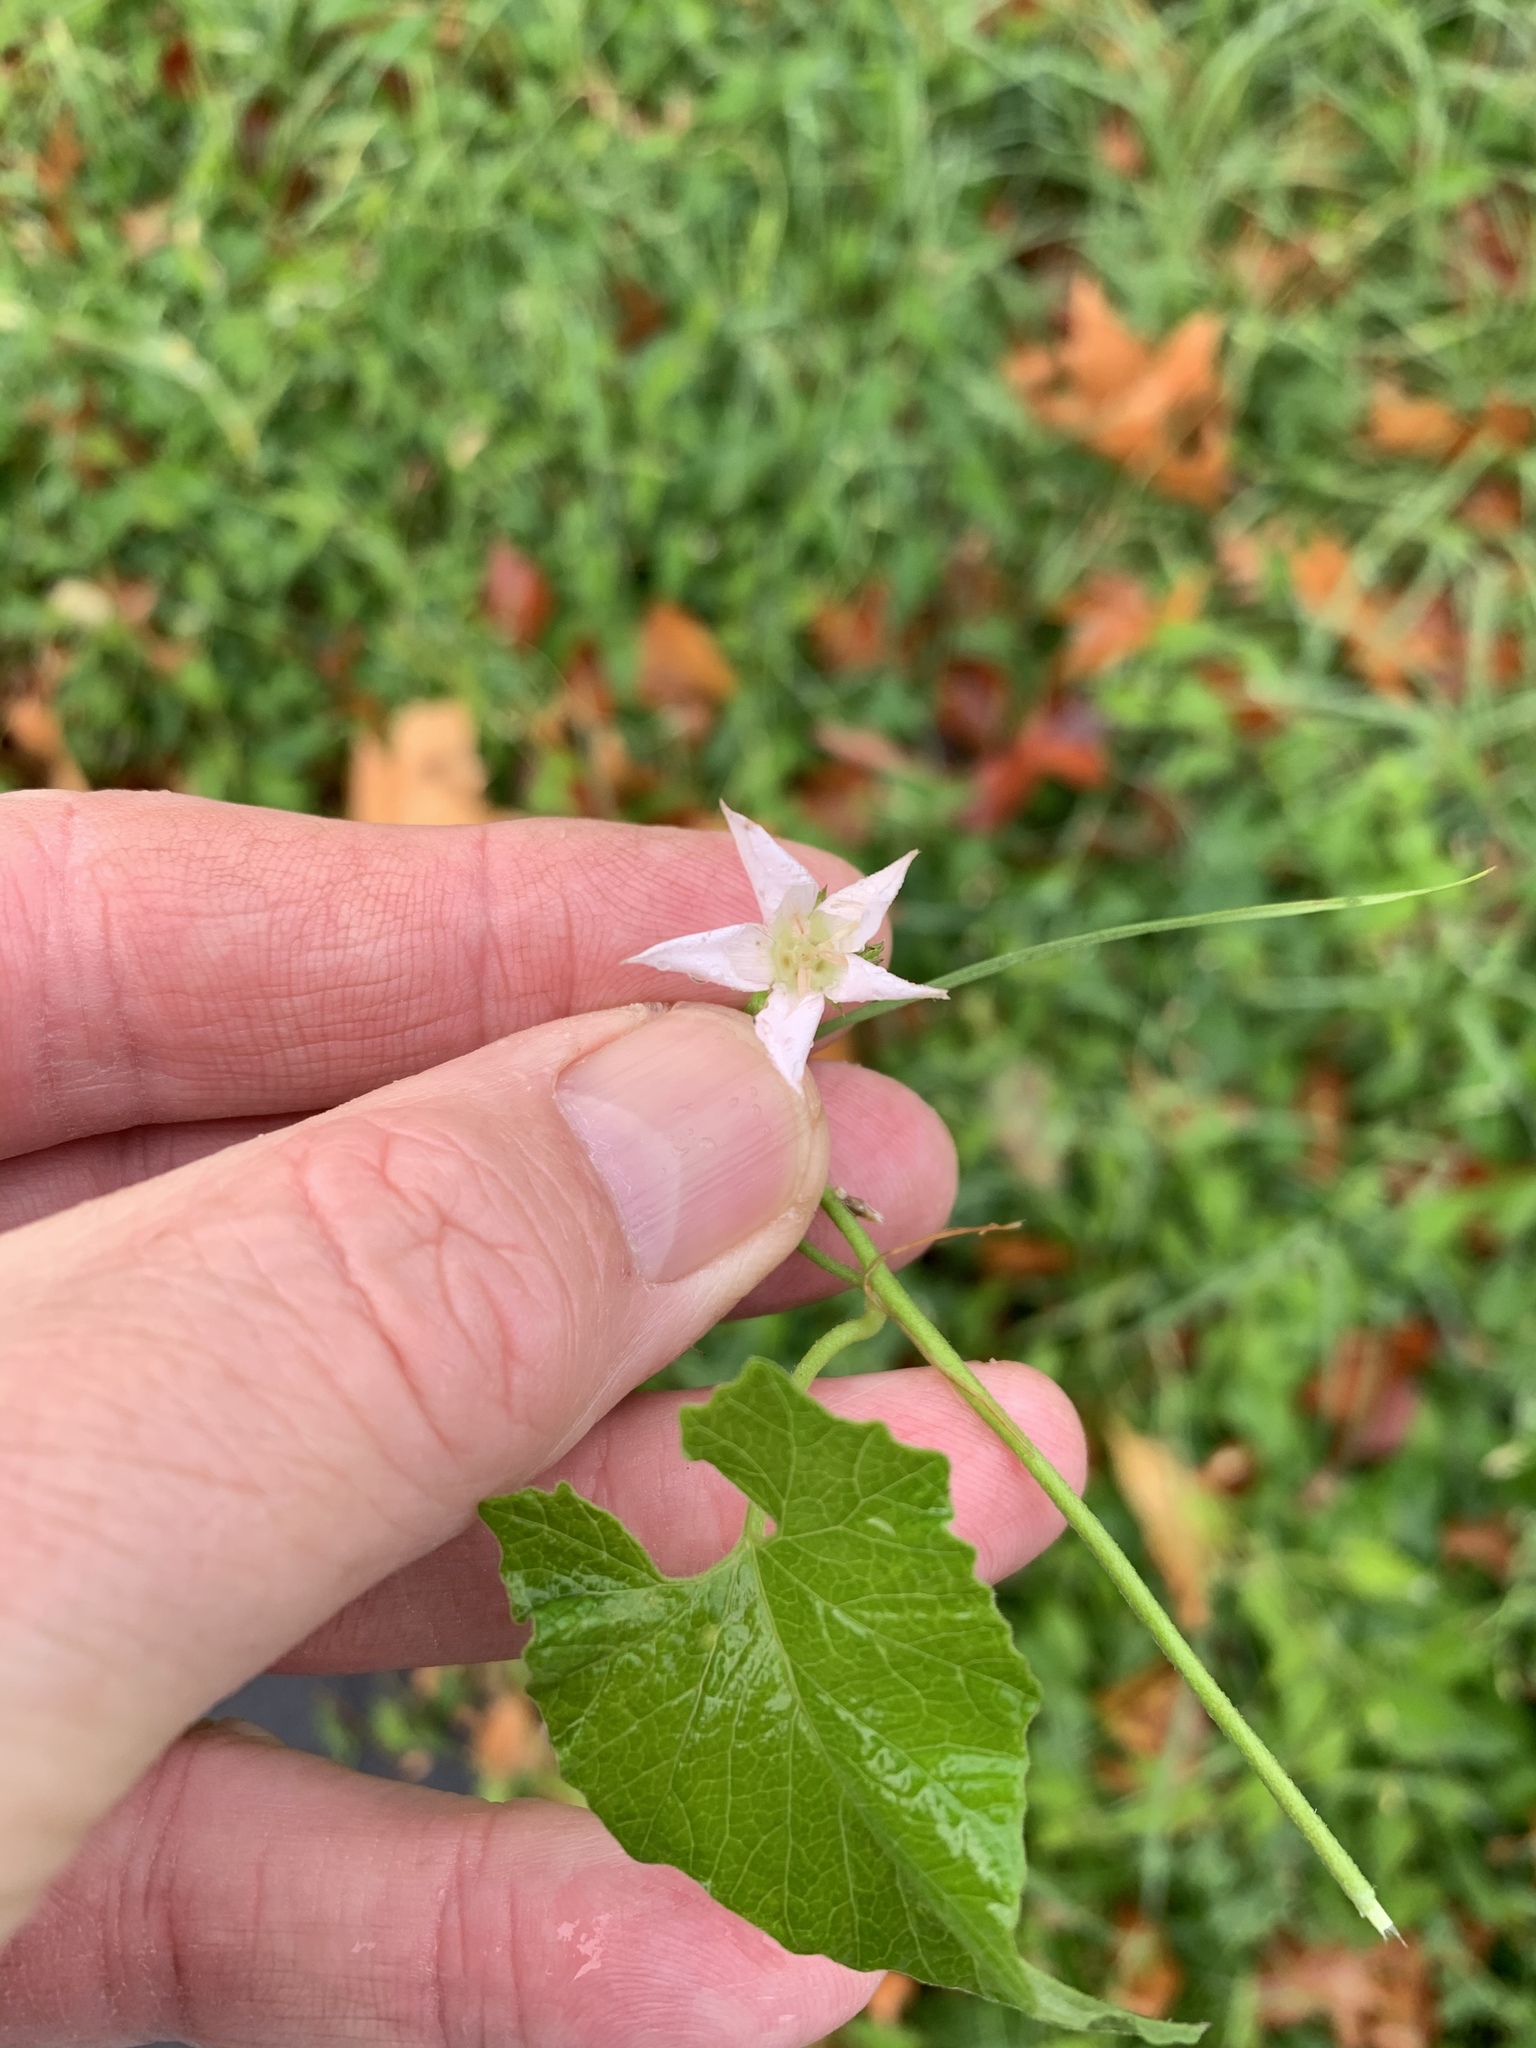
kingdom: Plantae
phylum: Tracheophyta
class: Magnoliopsida
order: Solanales
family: Convolvulaceae
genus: Convolvulus
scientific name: Convolvulus farinosus
